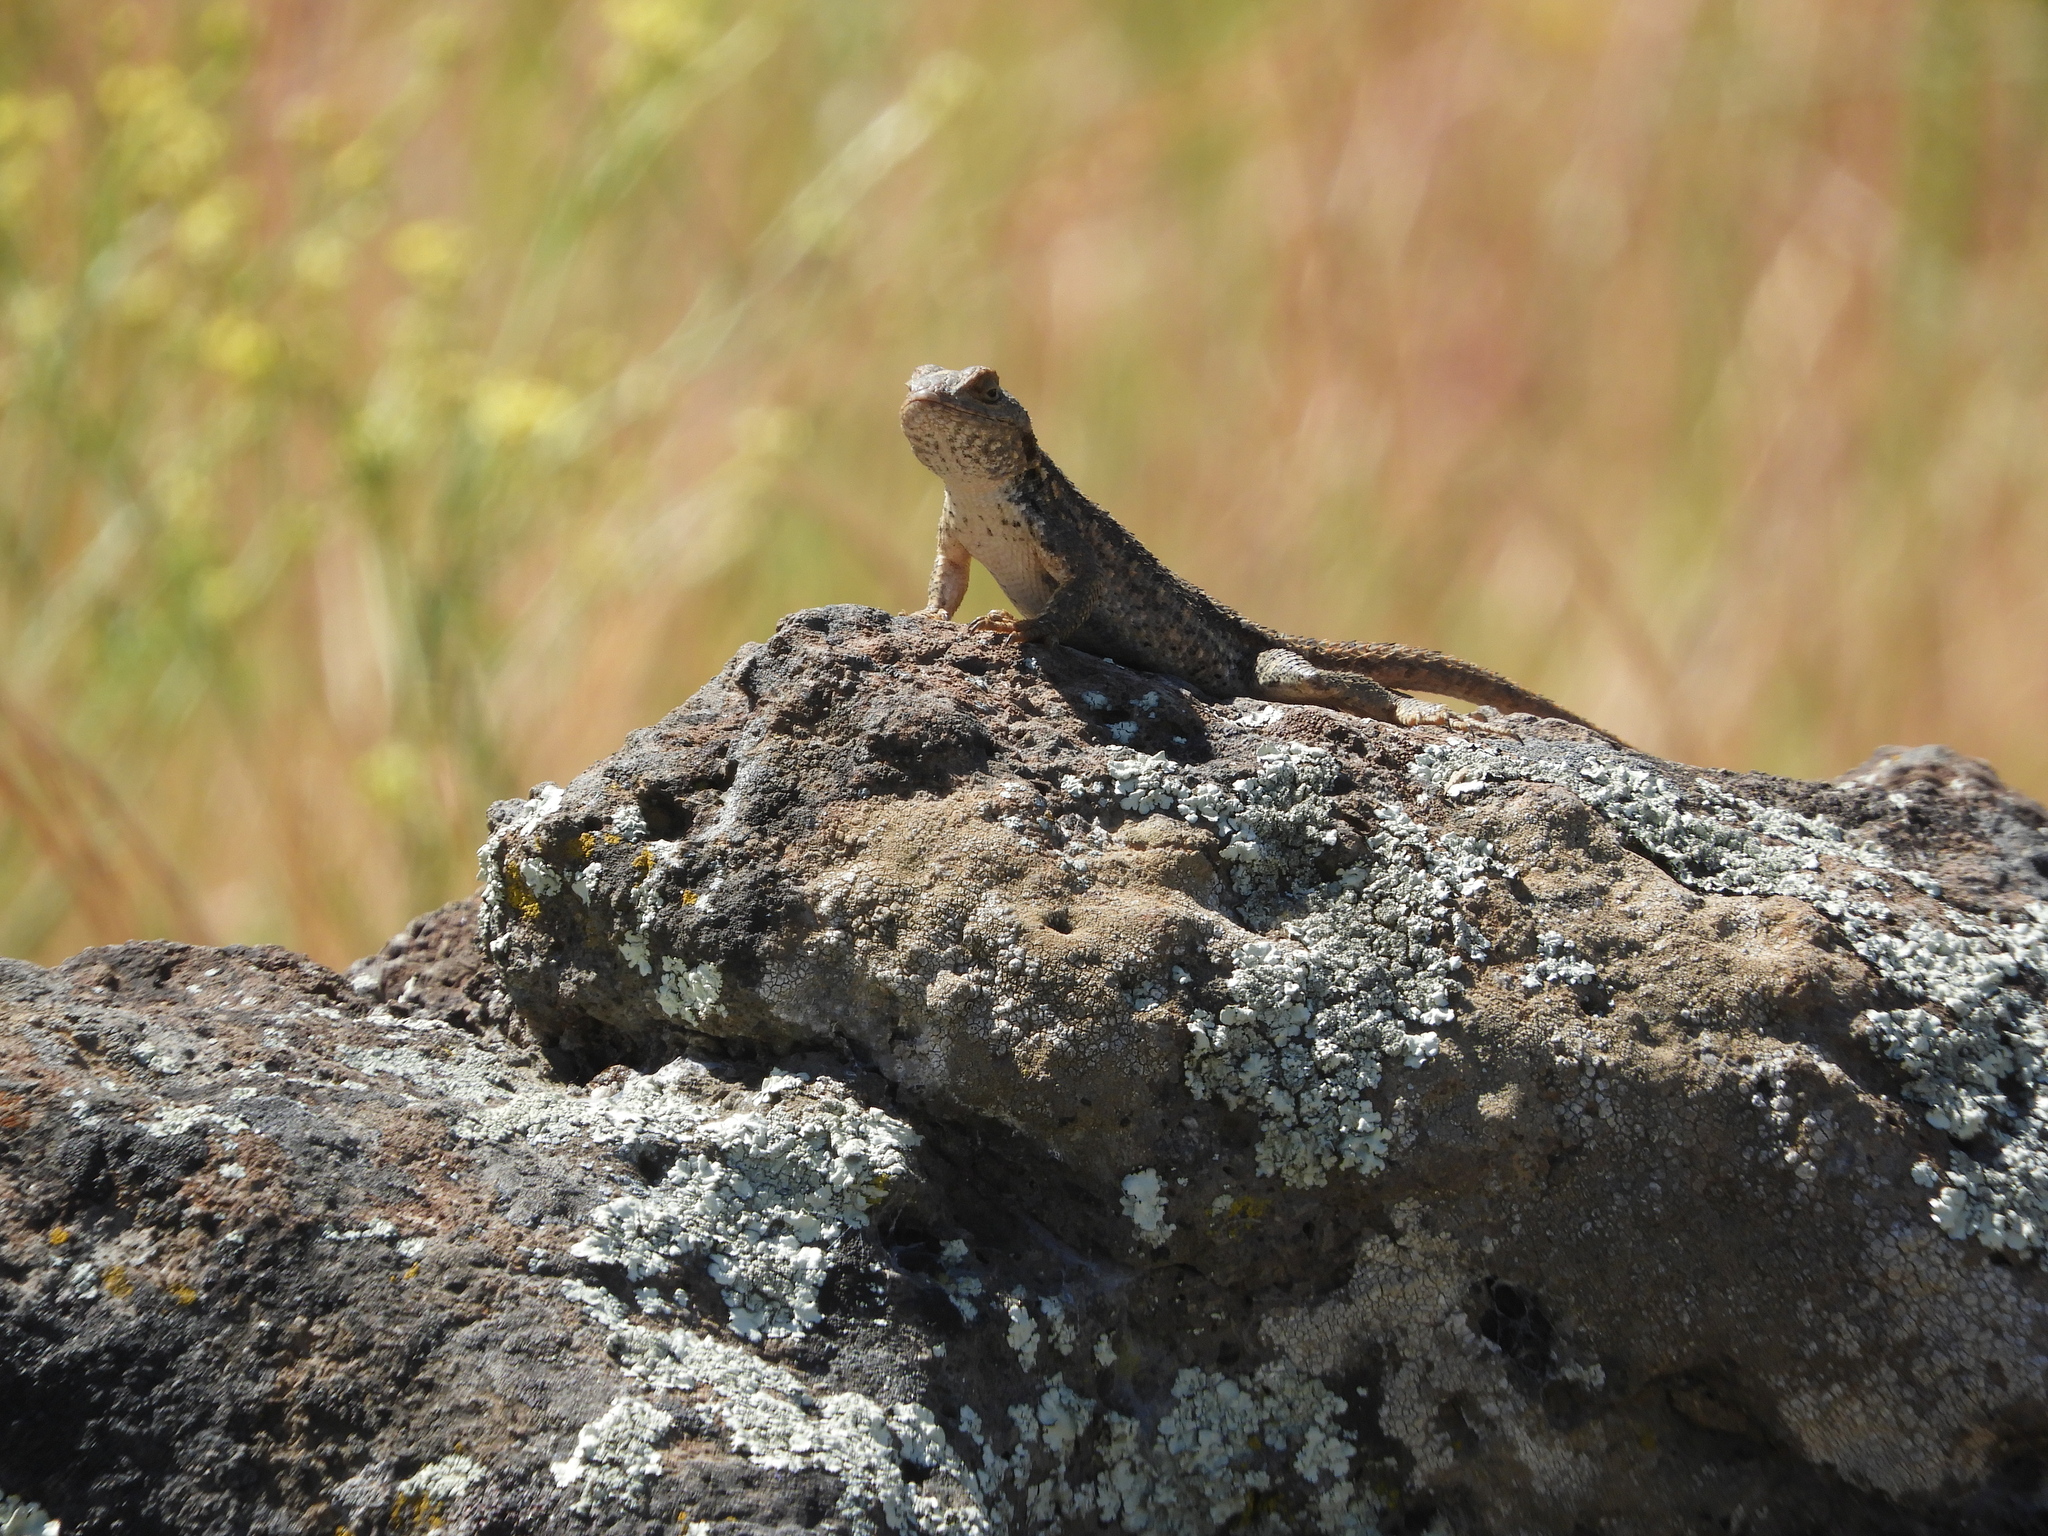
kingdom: Animalia
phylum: Chordata
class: Squamata
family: Phrynosomatidae
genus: Sceloporus
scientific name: Sceloporus occidentalis
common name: Western fence lizard
